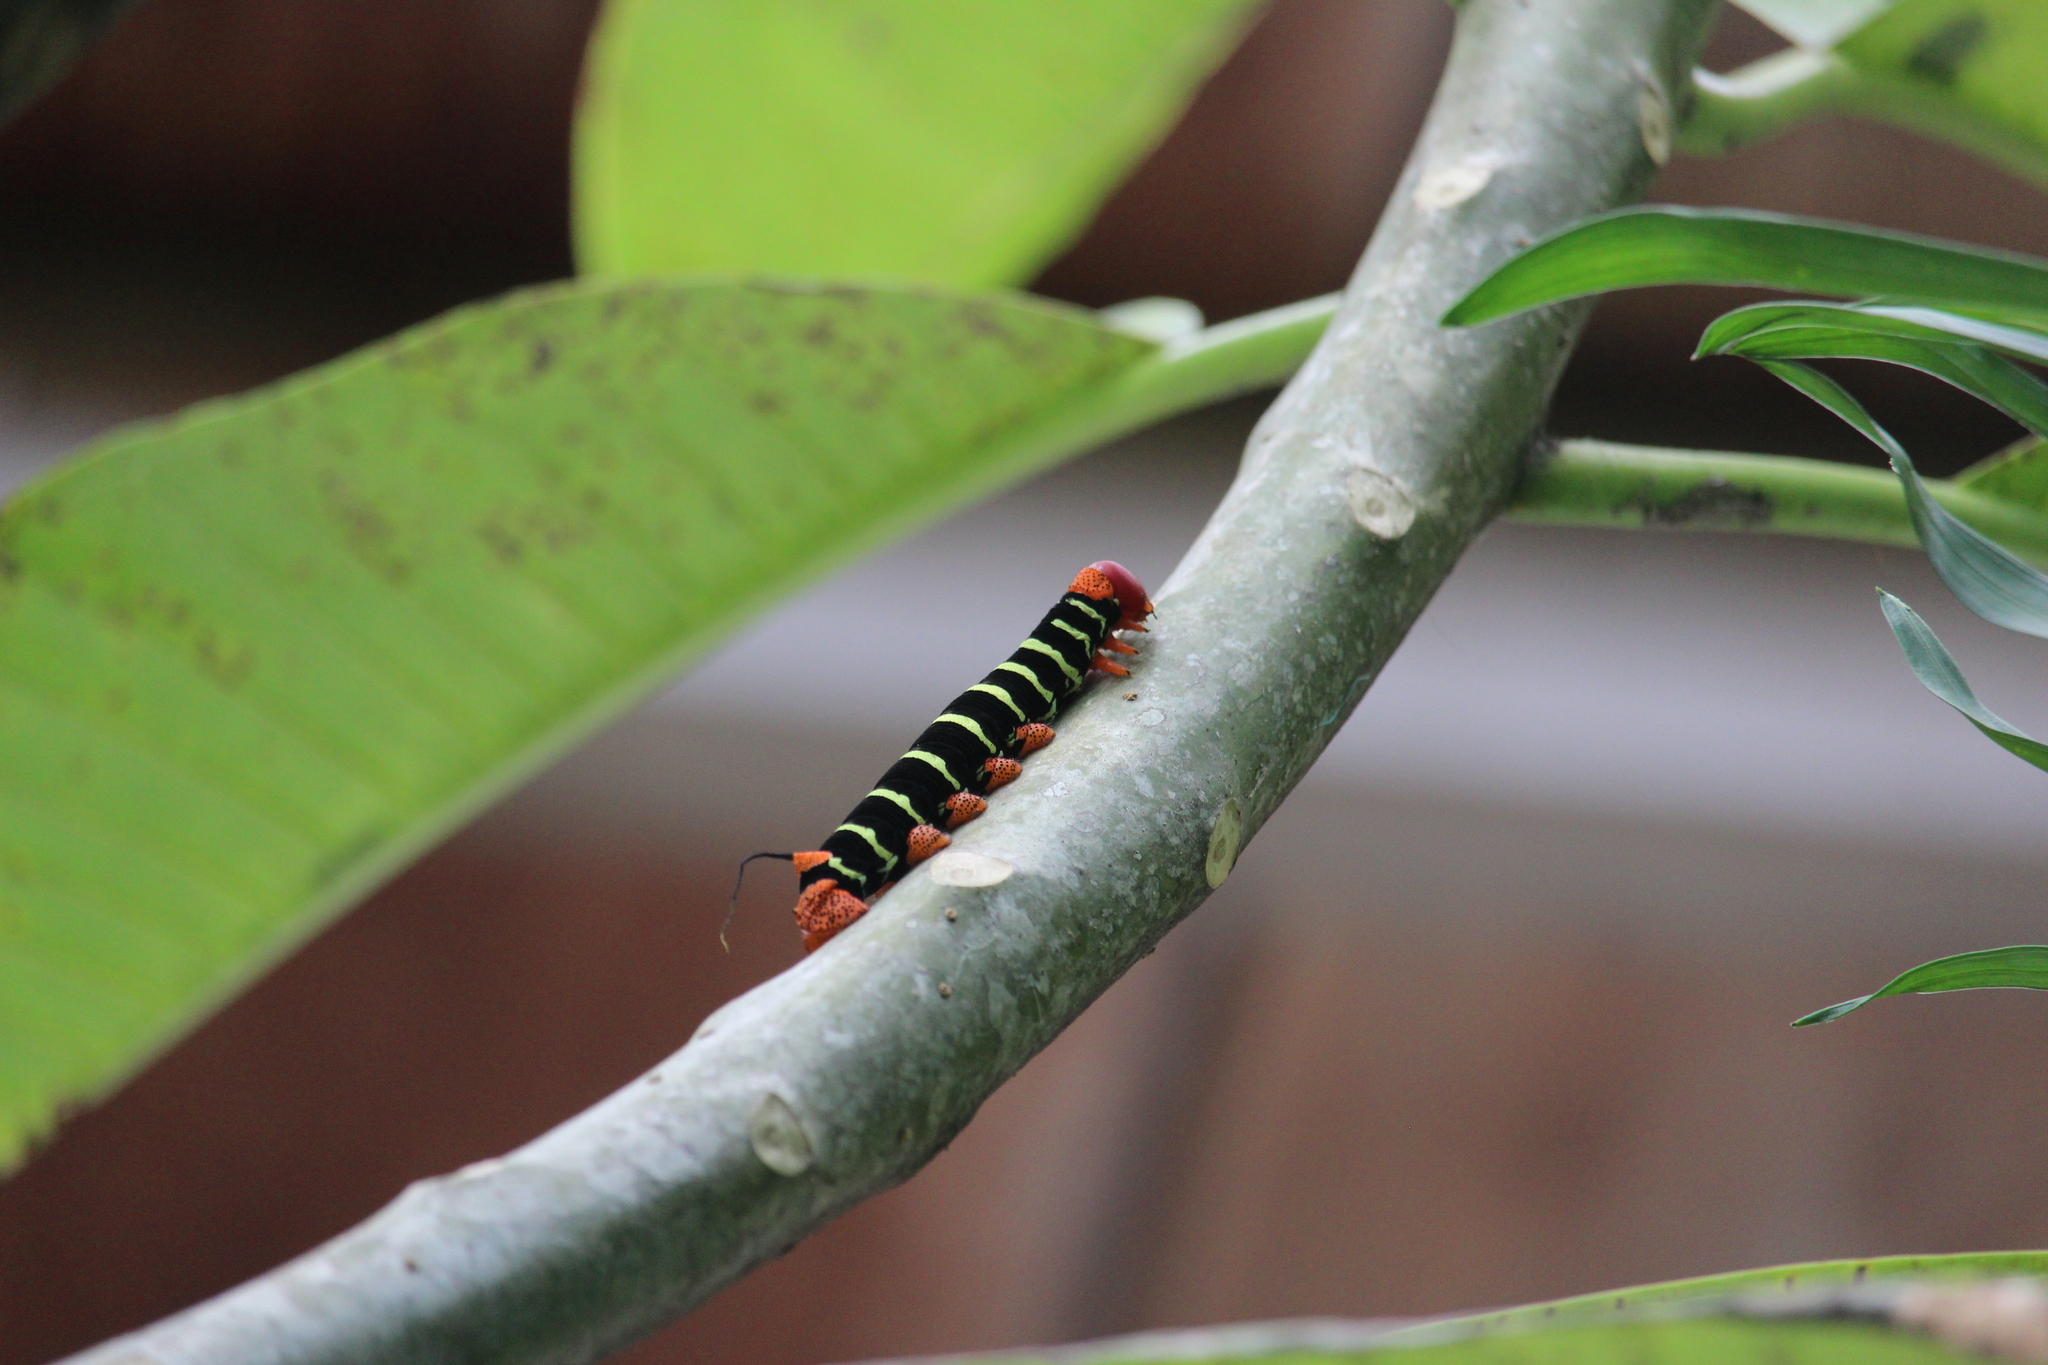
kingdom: Animalia
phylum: Arthropoda
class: Insecta
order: Lepidoptera
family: Sphingidae
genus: Pseudosphinx
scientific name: Pseudosphinx tetrio
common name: Tetrio sphinx
